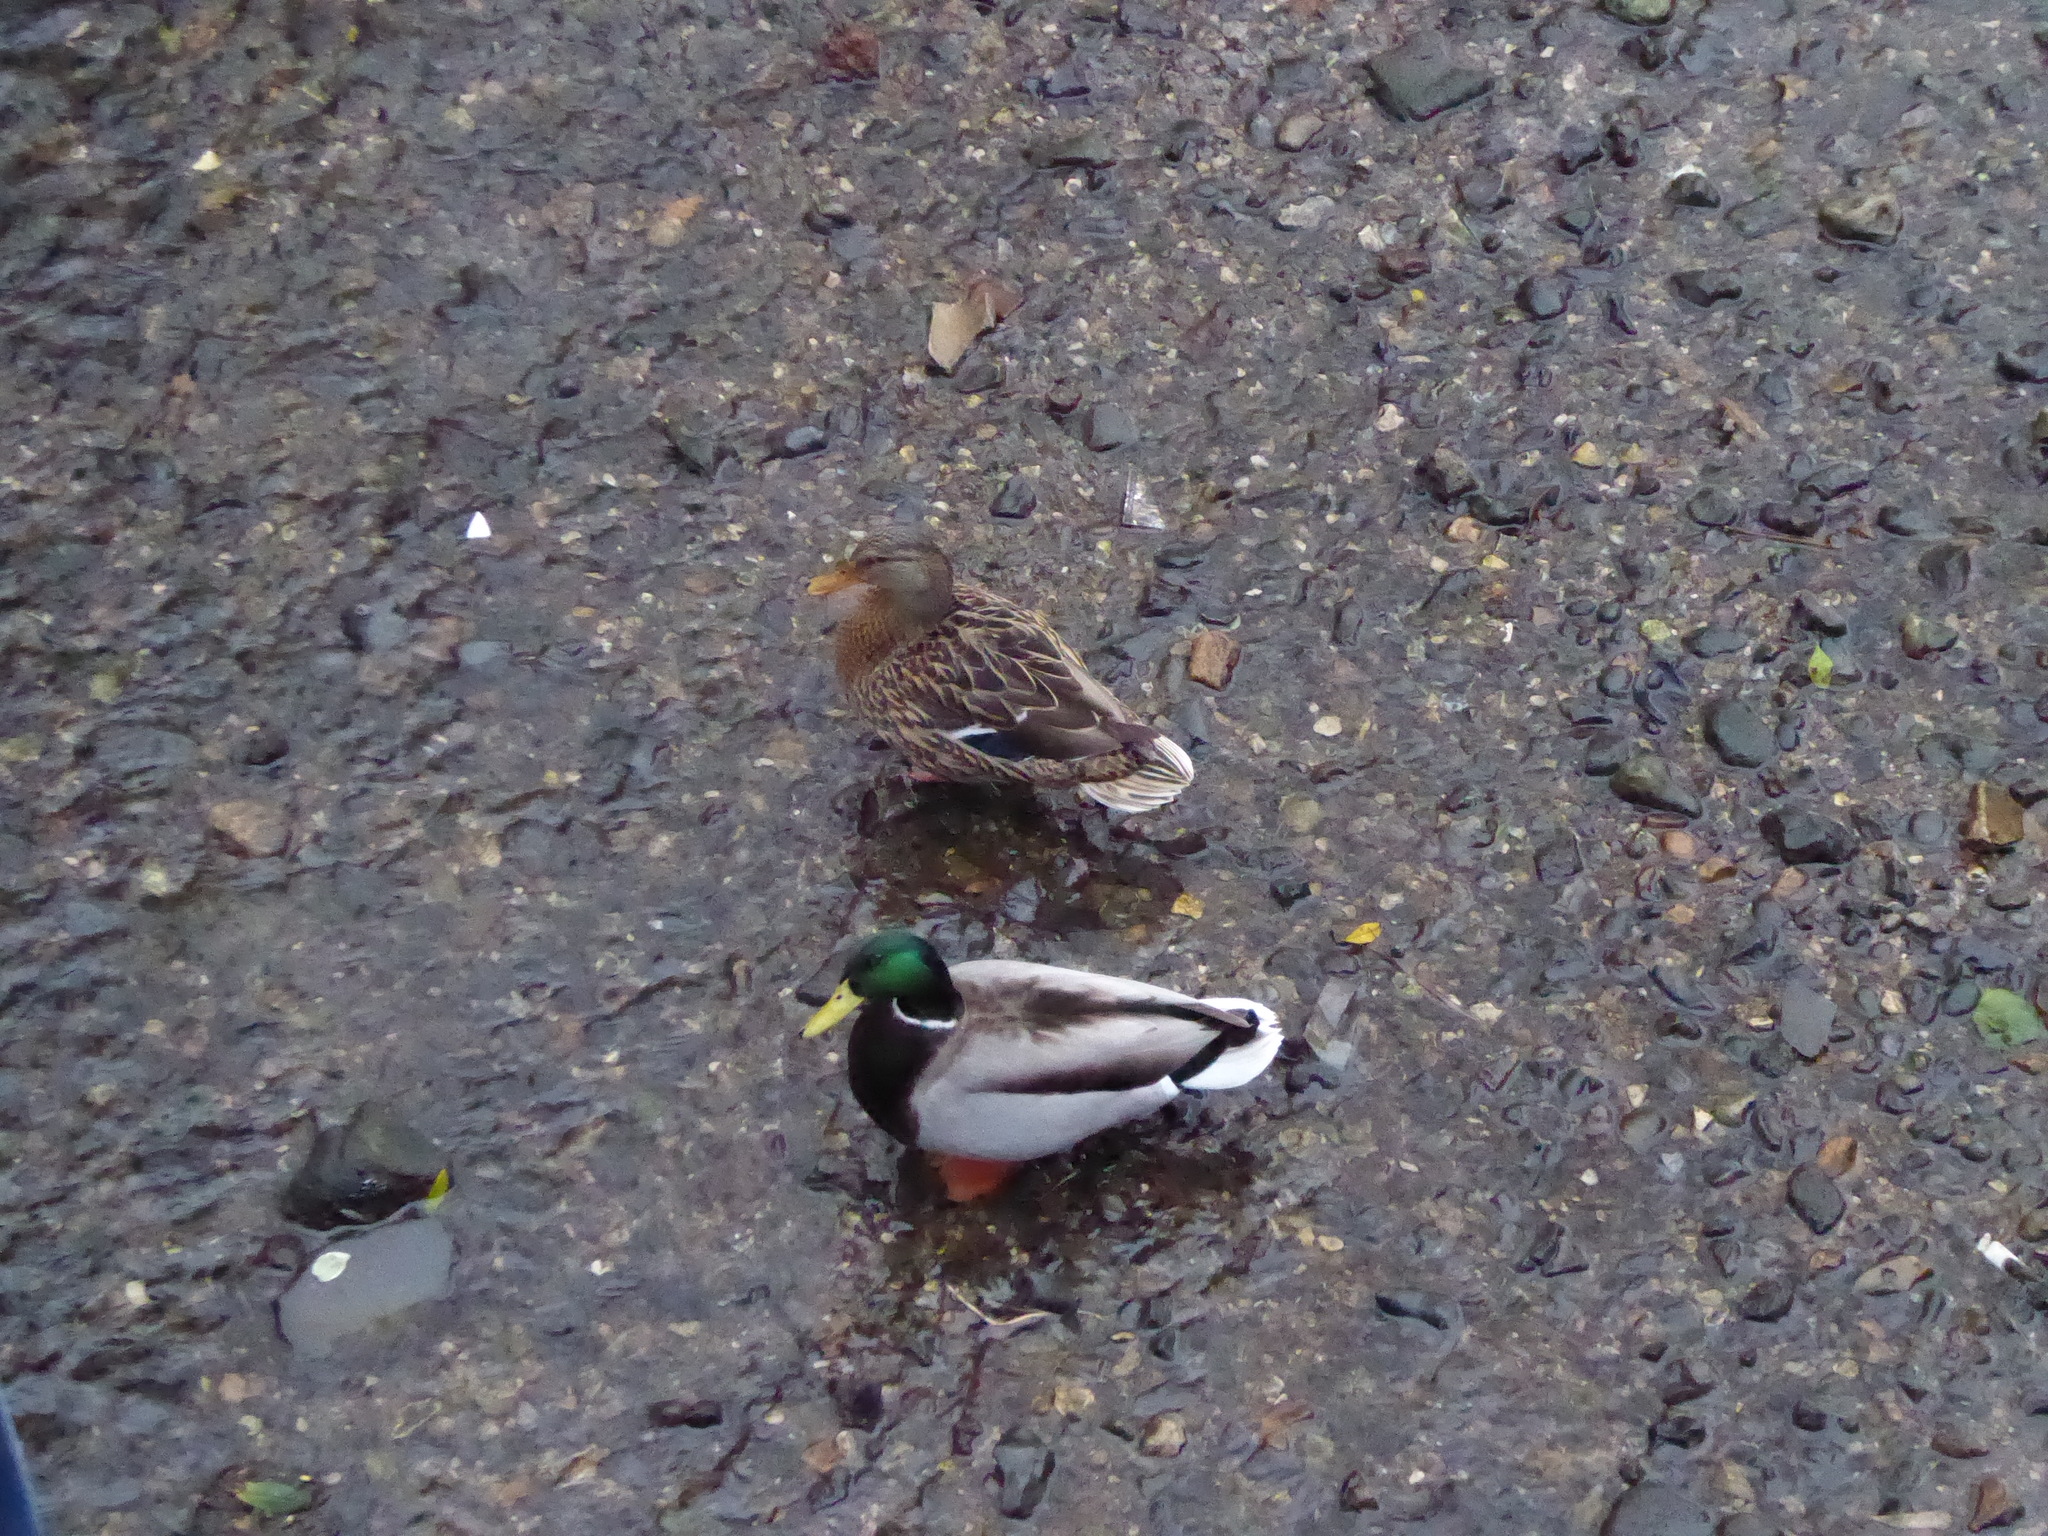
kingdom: Animalia
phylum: Chordata
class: Aves
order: Anseriformes
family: Anatidae
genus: Anas
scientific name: Anas platyrhynchos
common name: Mallard
